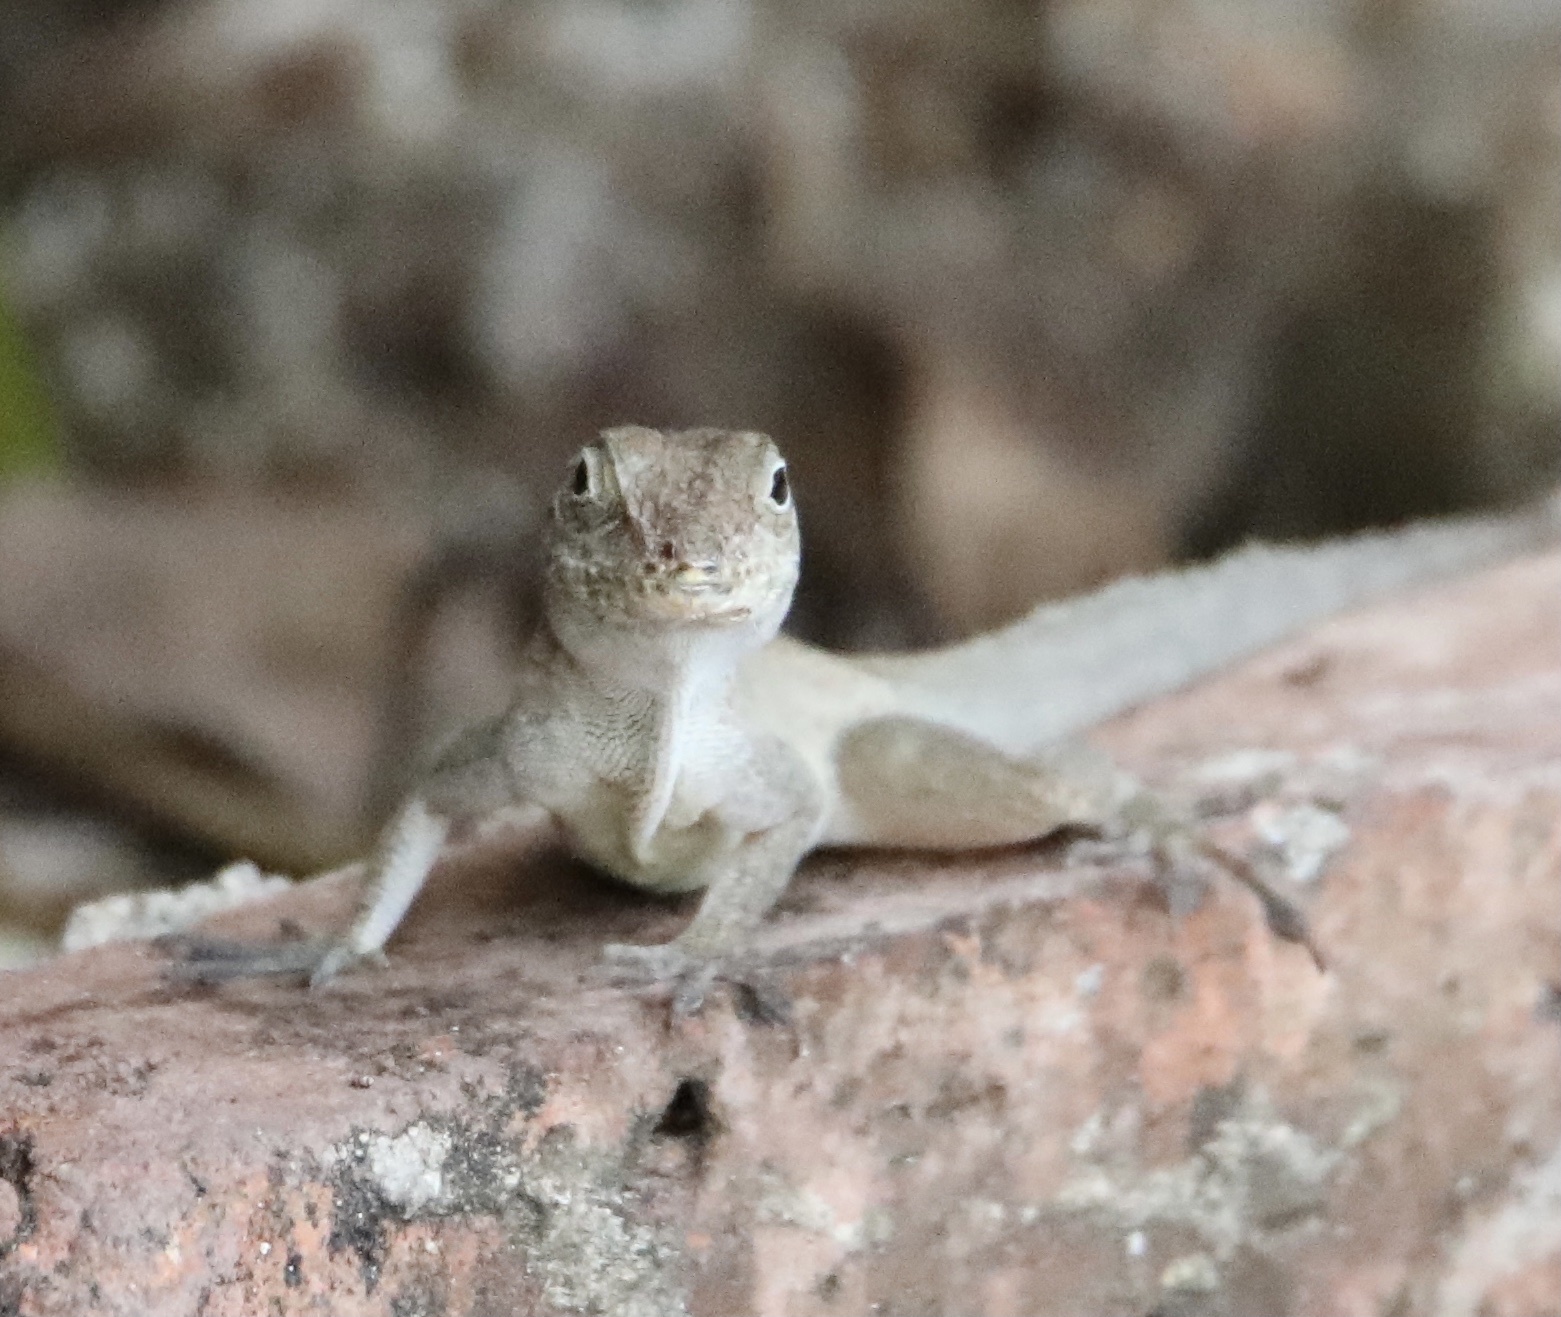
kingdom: Animalia
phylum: Chordata
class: Squamata
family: Dactyloidae
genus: Anolis
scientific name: Anolis cristatellus
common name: Crested anole
